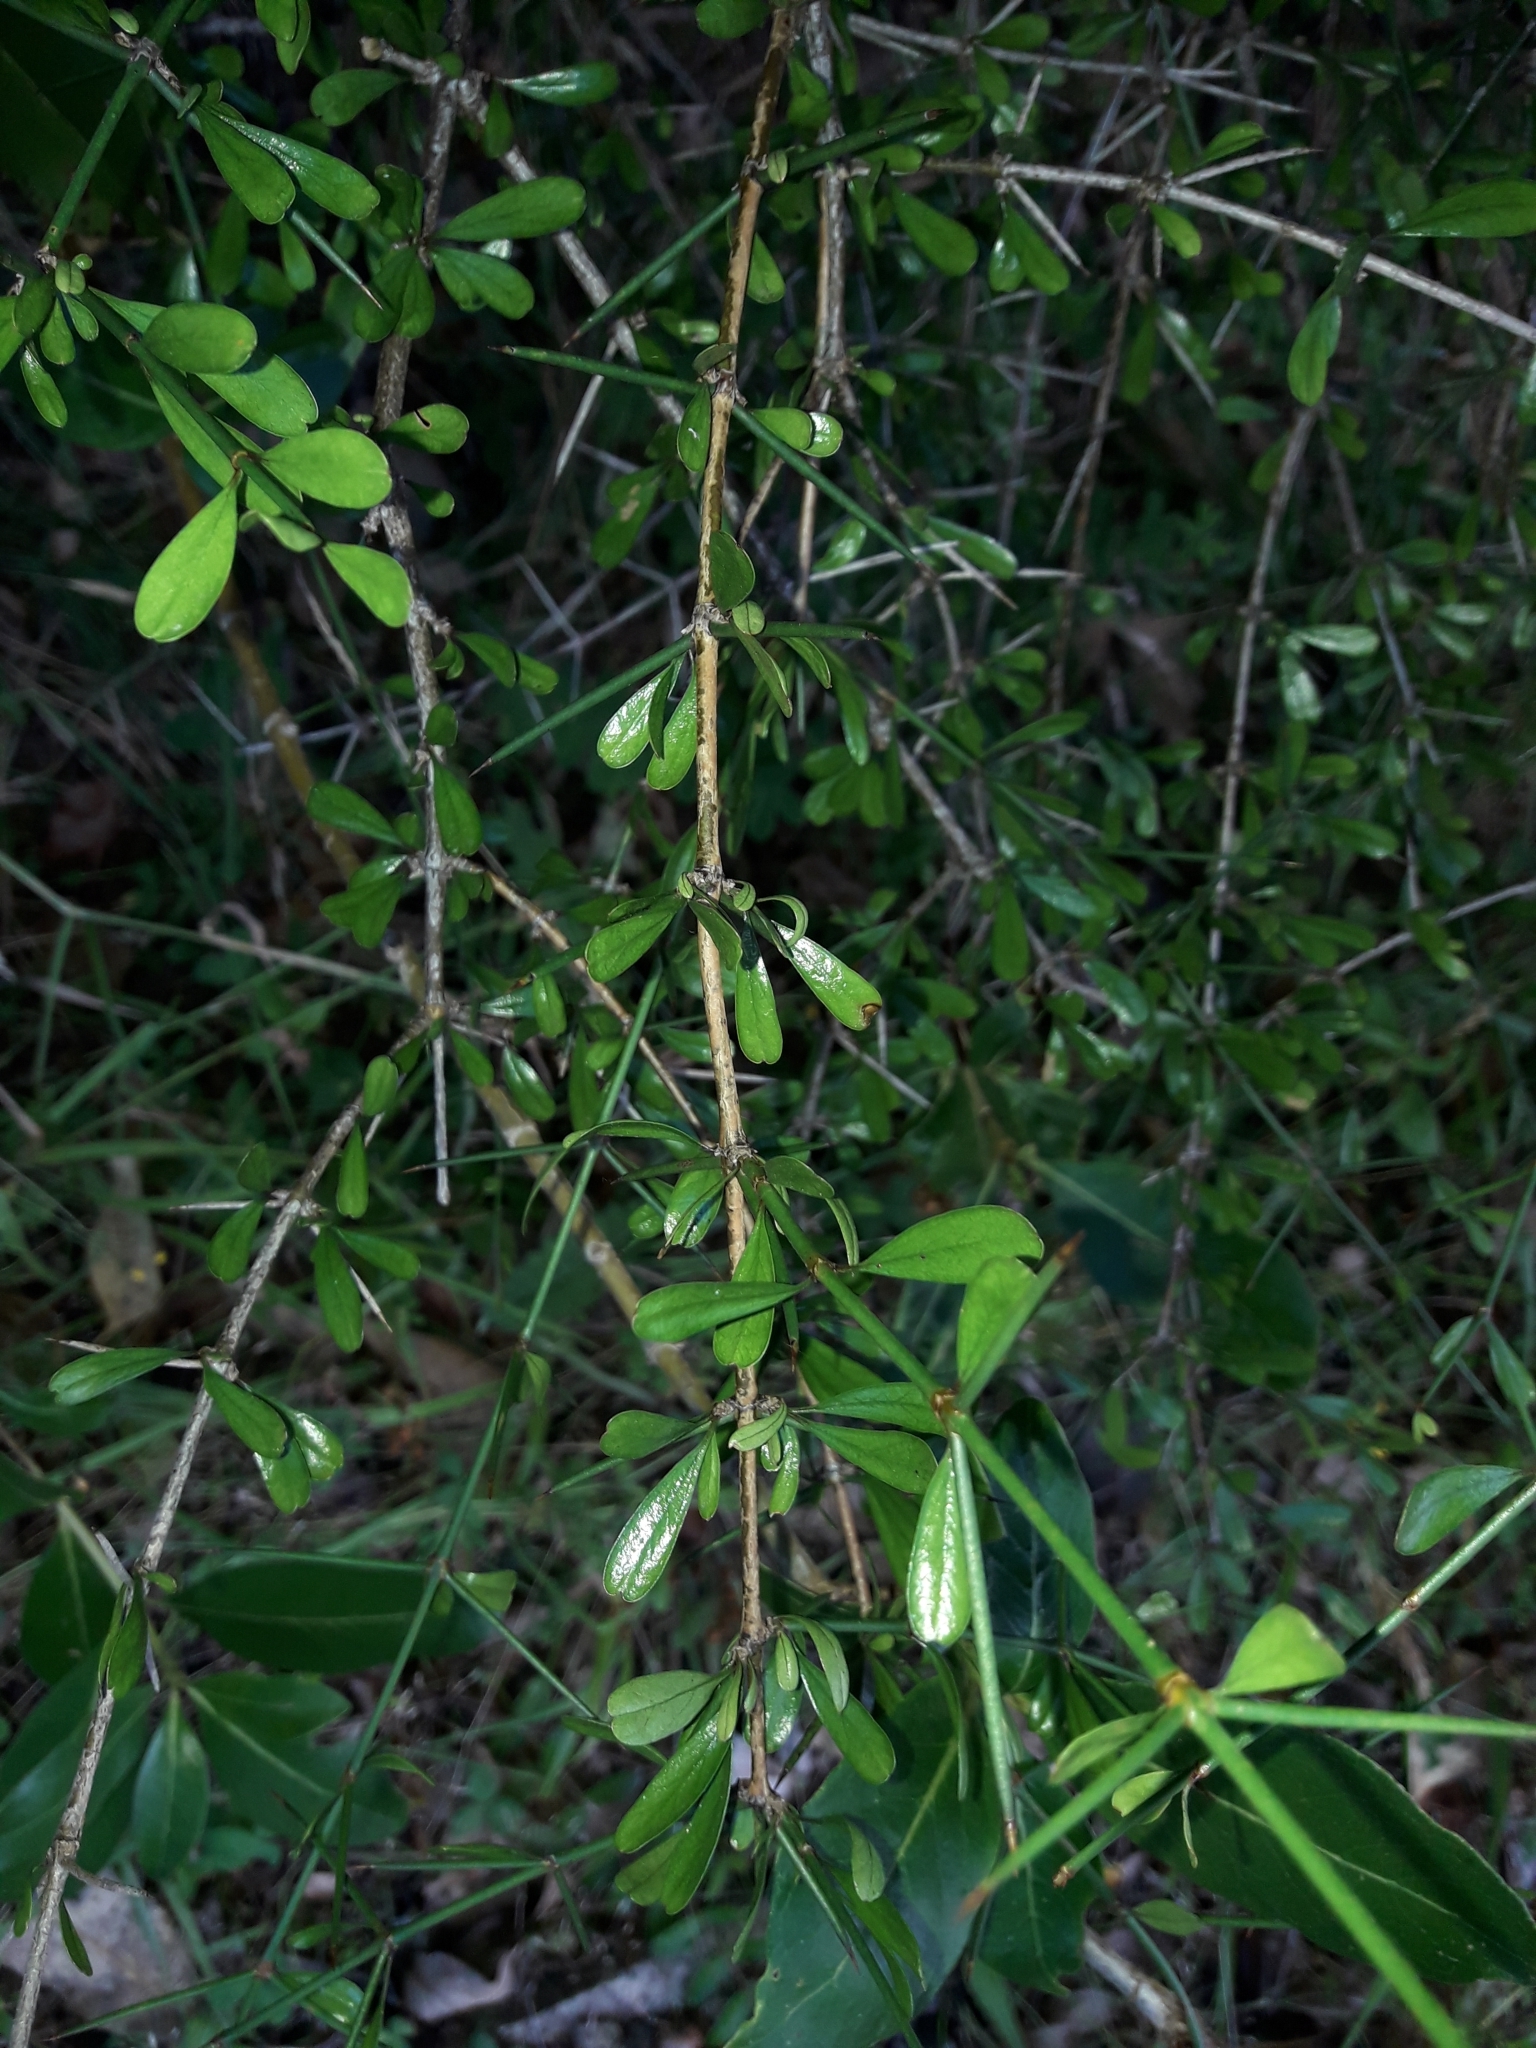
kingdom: Plantae
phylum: Tracheophyta
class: Magnoliopsida
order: Rosales
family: Rhamnaceae
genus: Discaria
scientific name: Discaria toumatou
